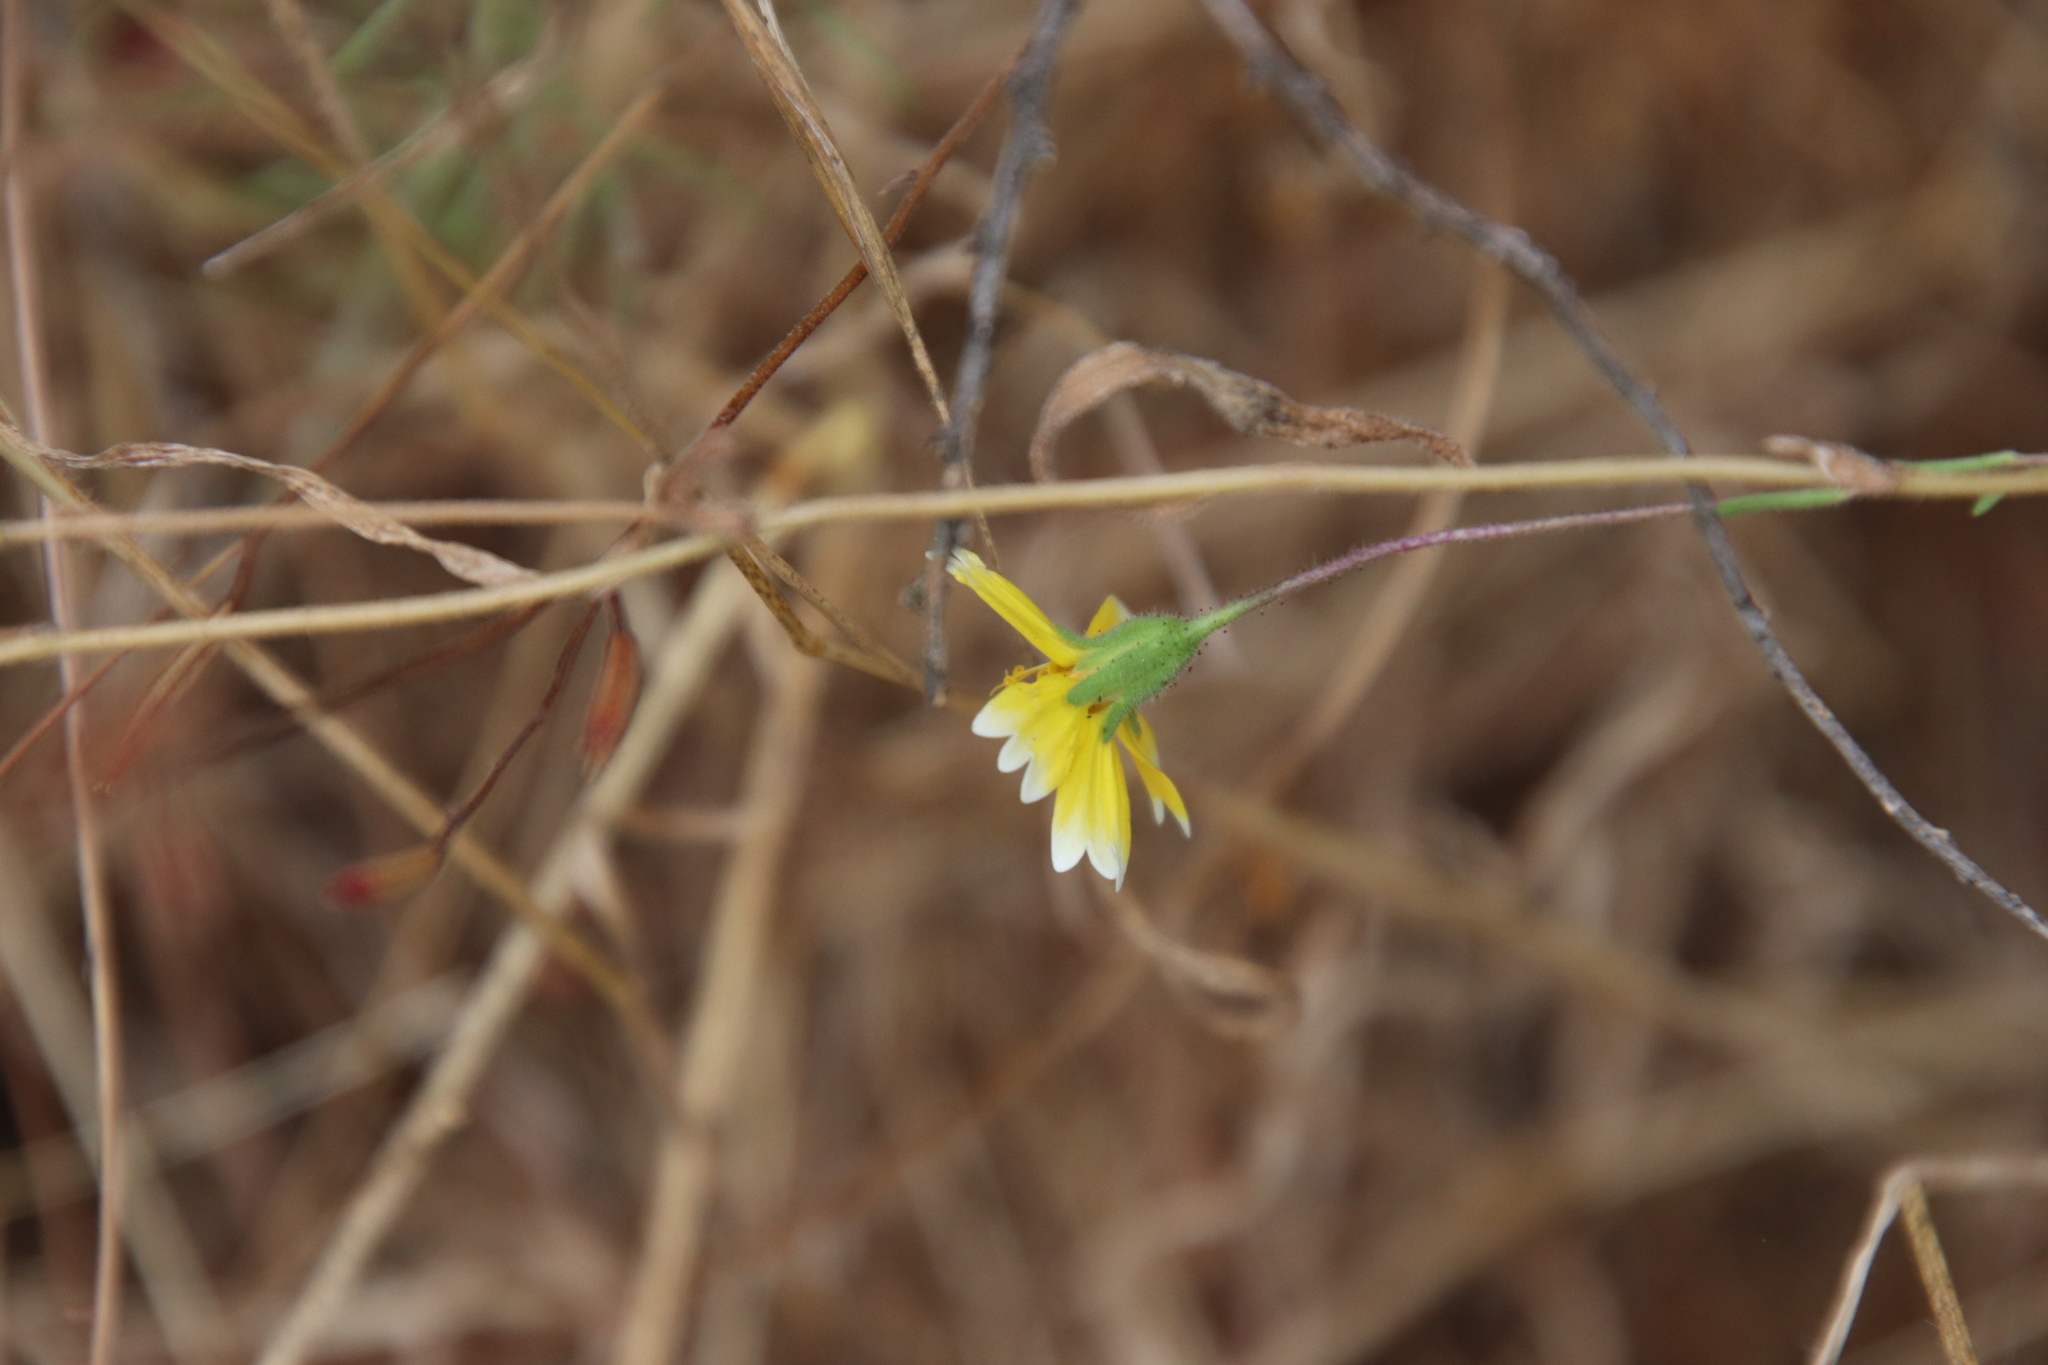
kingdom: Plantae
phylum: Tracheophyta
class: Magnoliopsida
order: Asterales
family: Asteraceae
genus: Layia
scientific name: Layia platyglossa
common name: Tidy-tips
